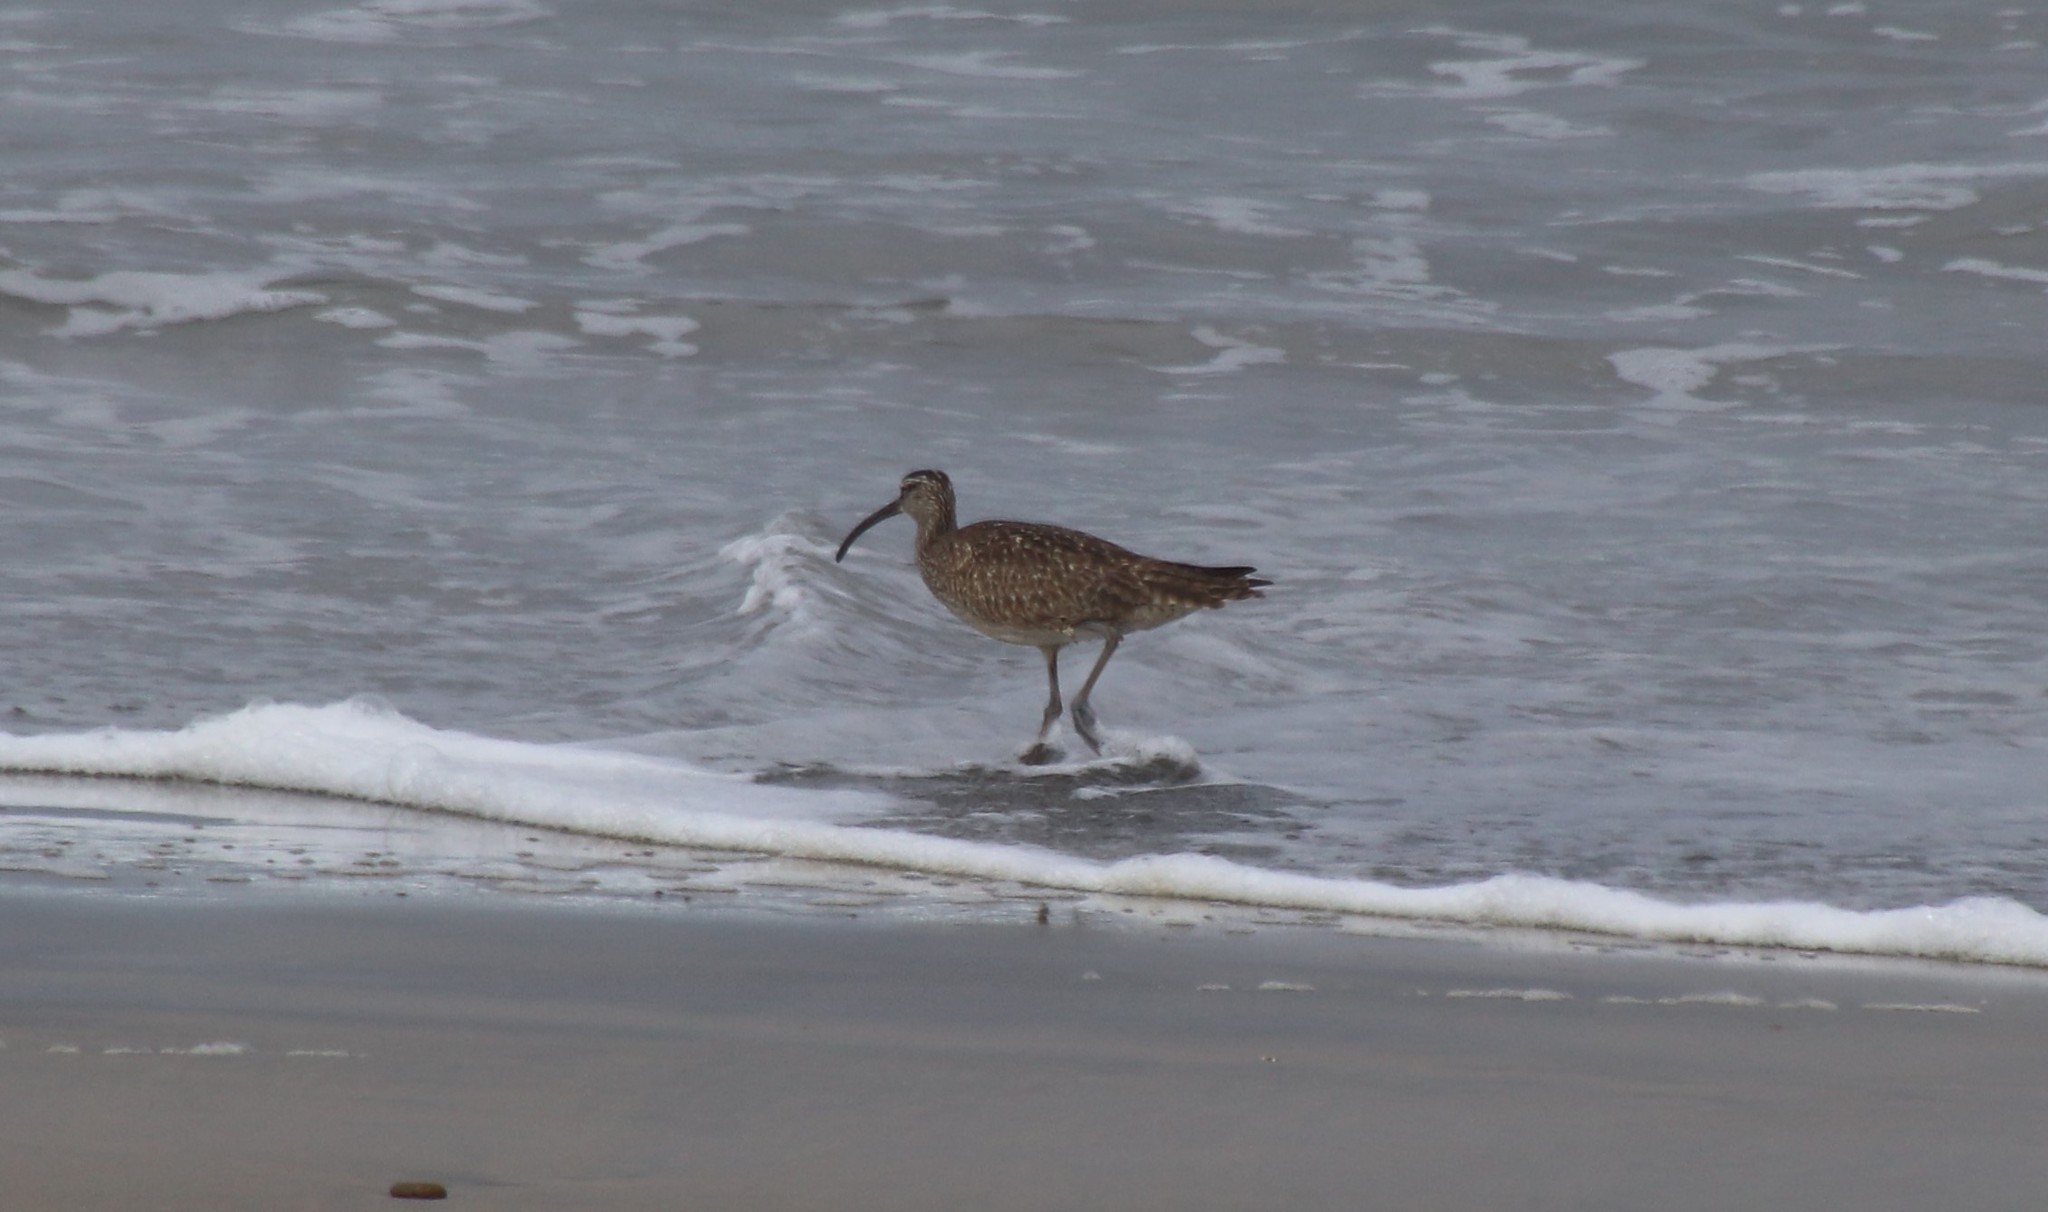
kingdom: Animalia
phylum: Chordata
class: Aves
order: Charadriiformes
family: Scolopacidae
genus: Numenius
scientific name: Numenius phaeopus
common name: Whimbrel
